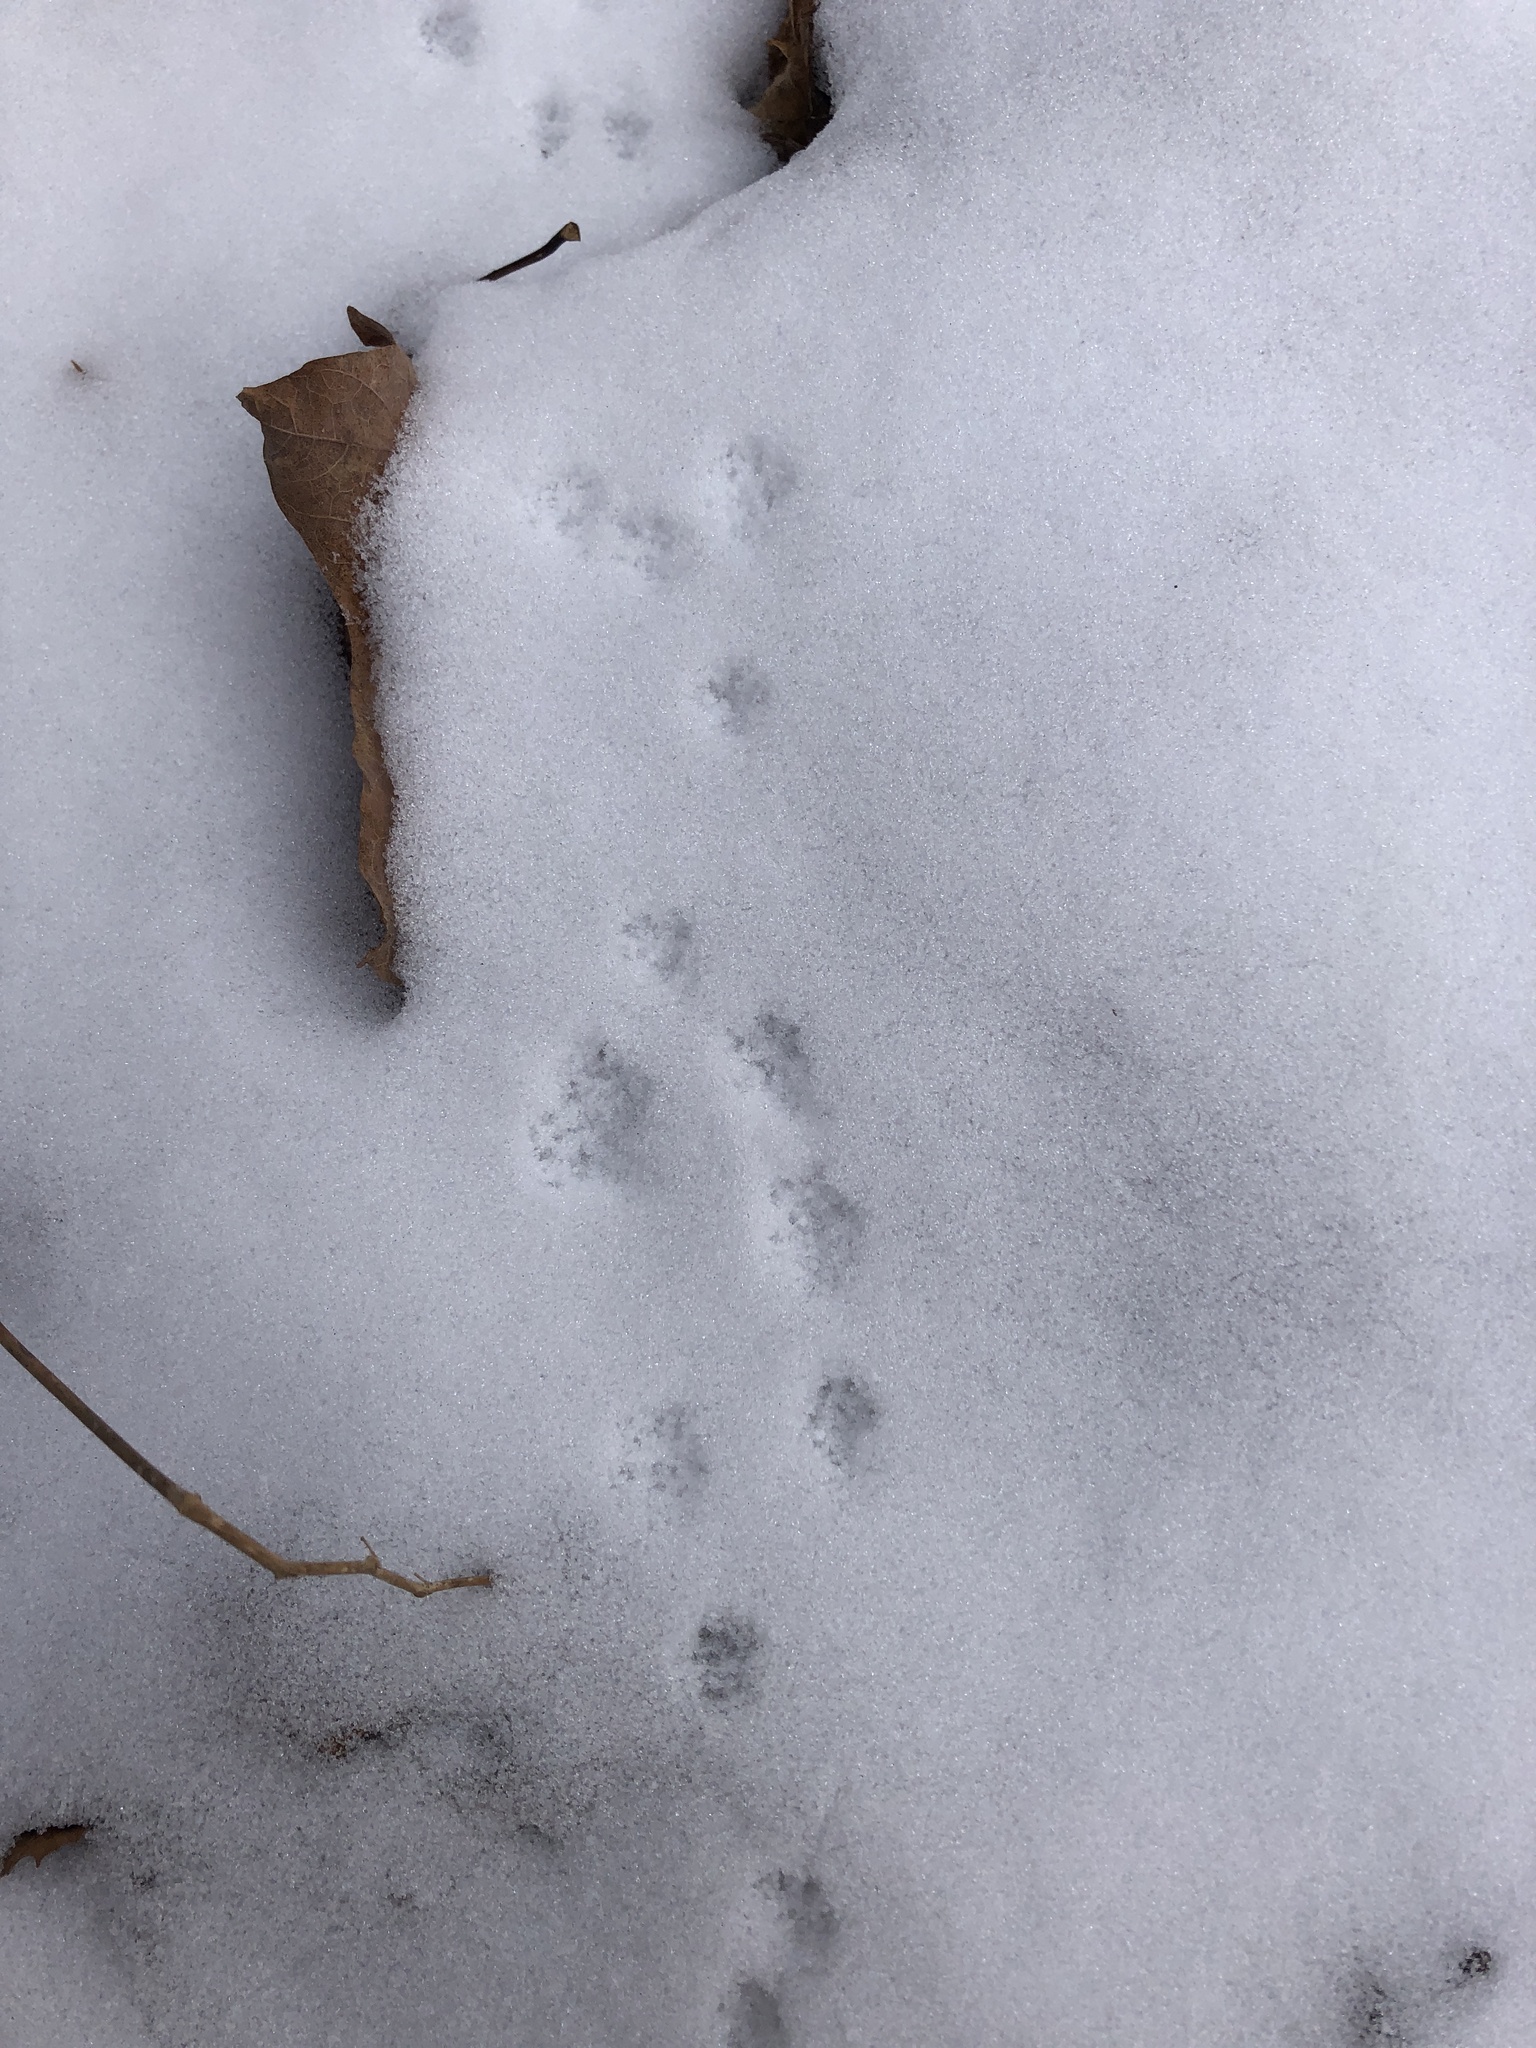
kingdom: Animalia
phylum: Chordata
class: Mammalia
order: Rodentia
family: Cricetidae
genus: Microtus
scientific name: Microtus pennsylvanicus
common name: Meadow vole
